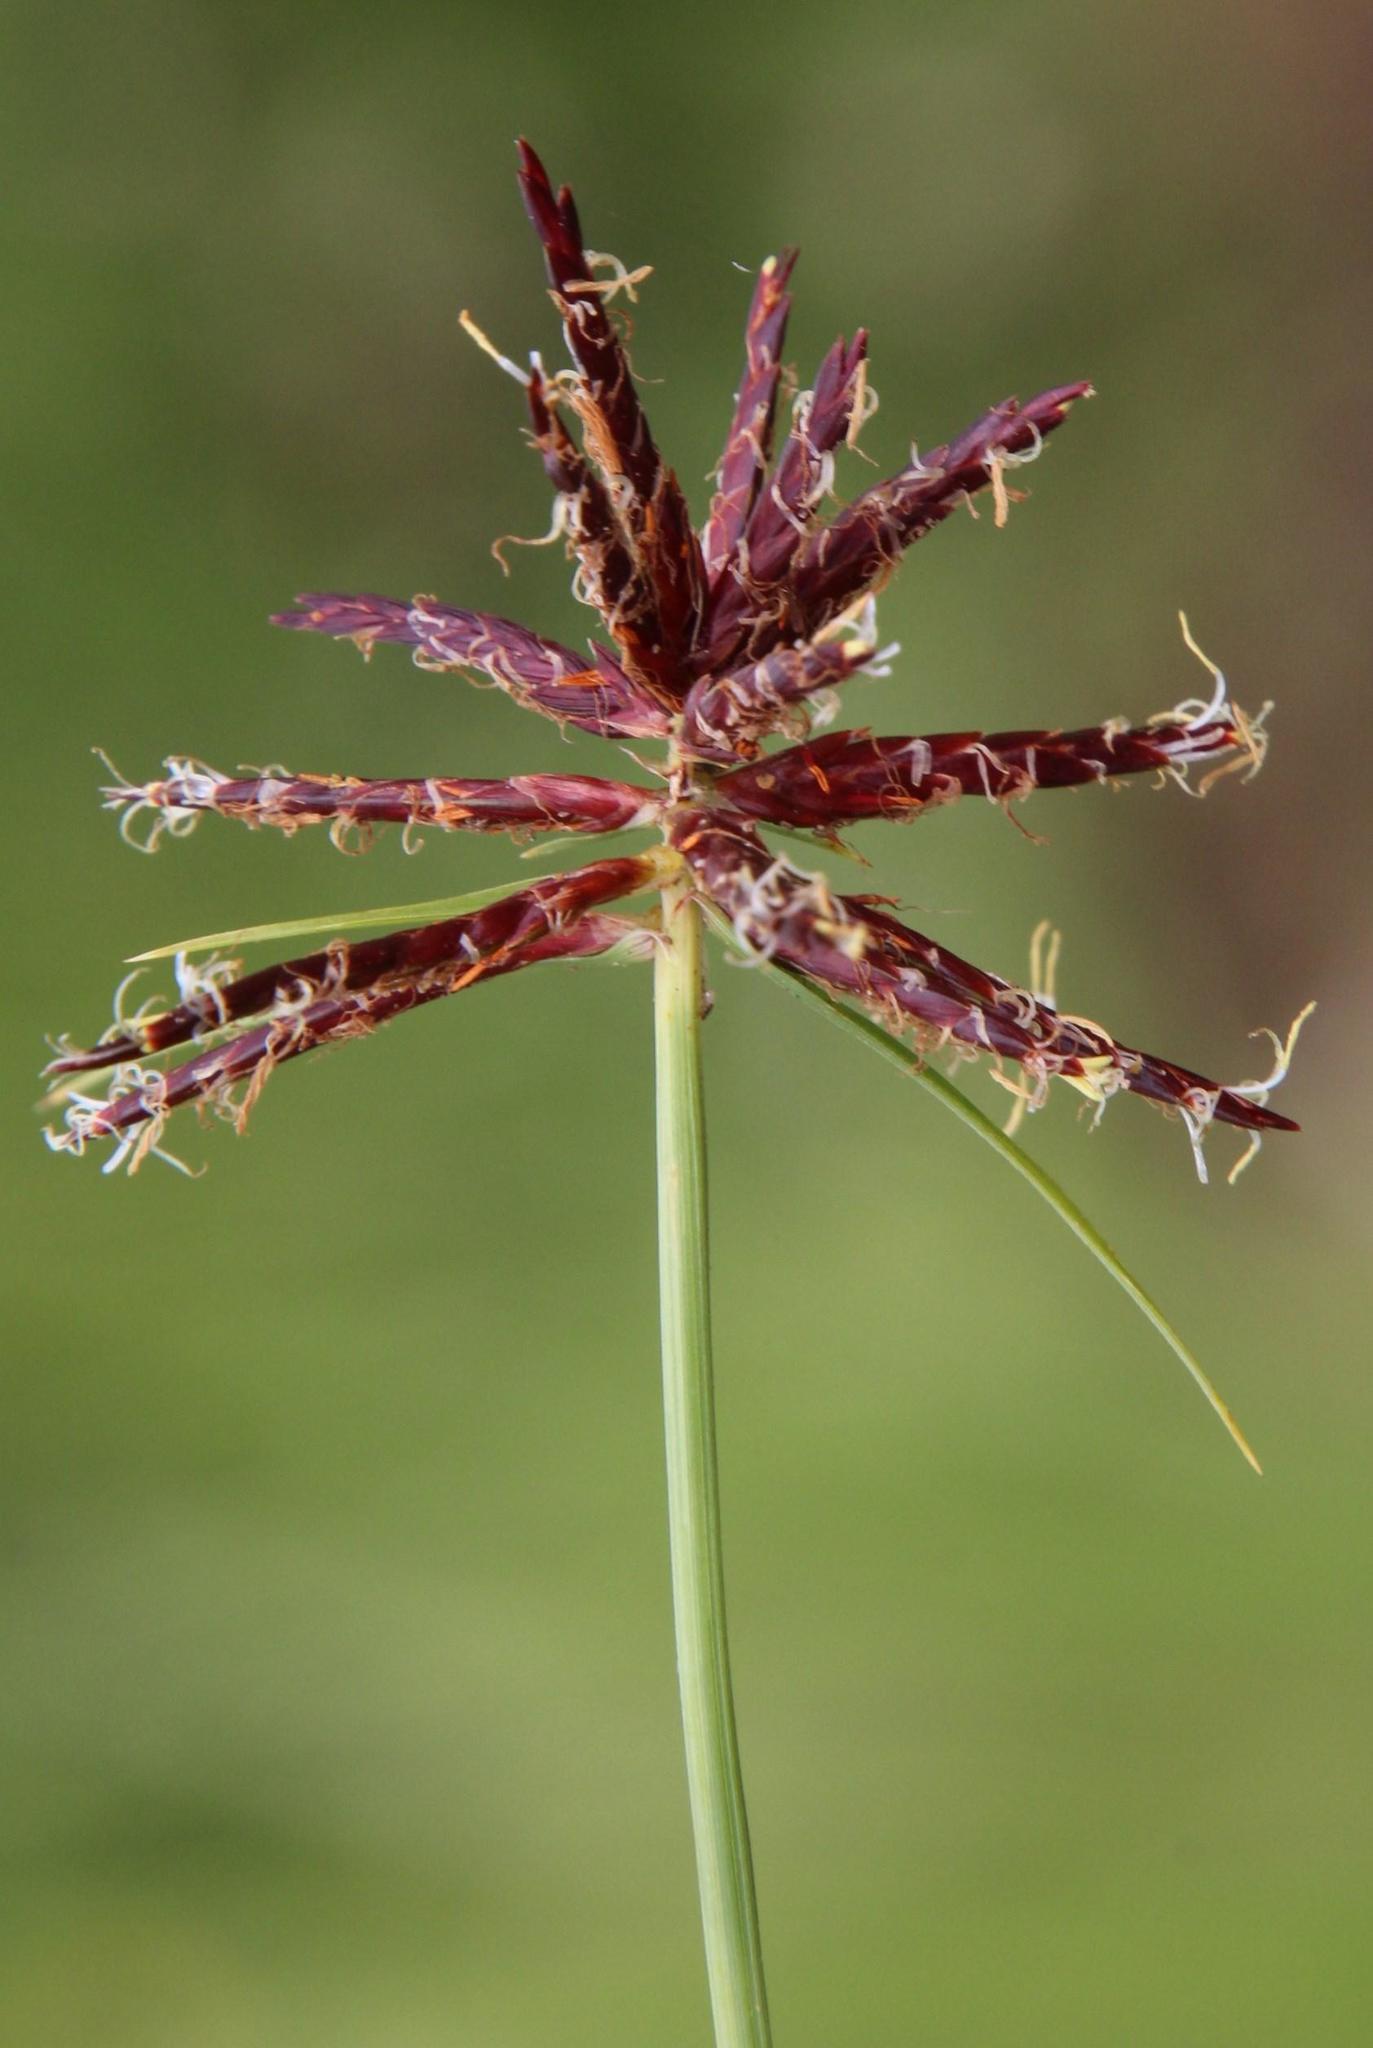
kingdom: Plantae
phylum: Tracheophyta
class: Liliopsida
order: Poales
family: Cyperaceae
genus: Cyperus
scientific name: Cyperus usitatus
